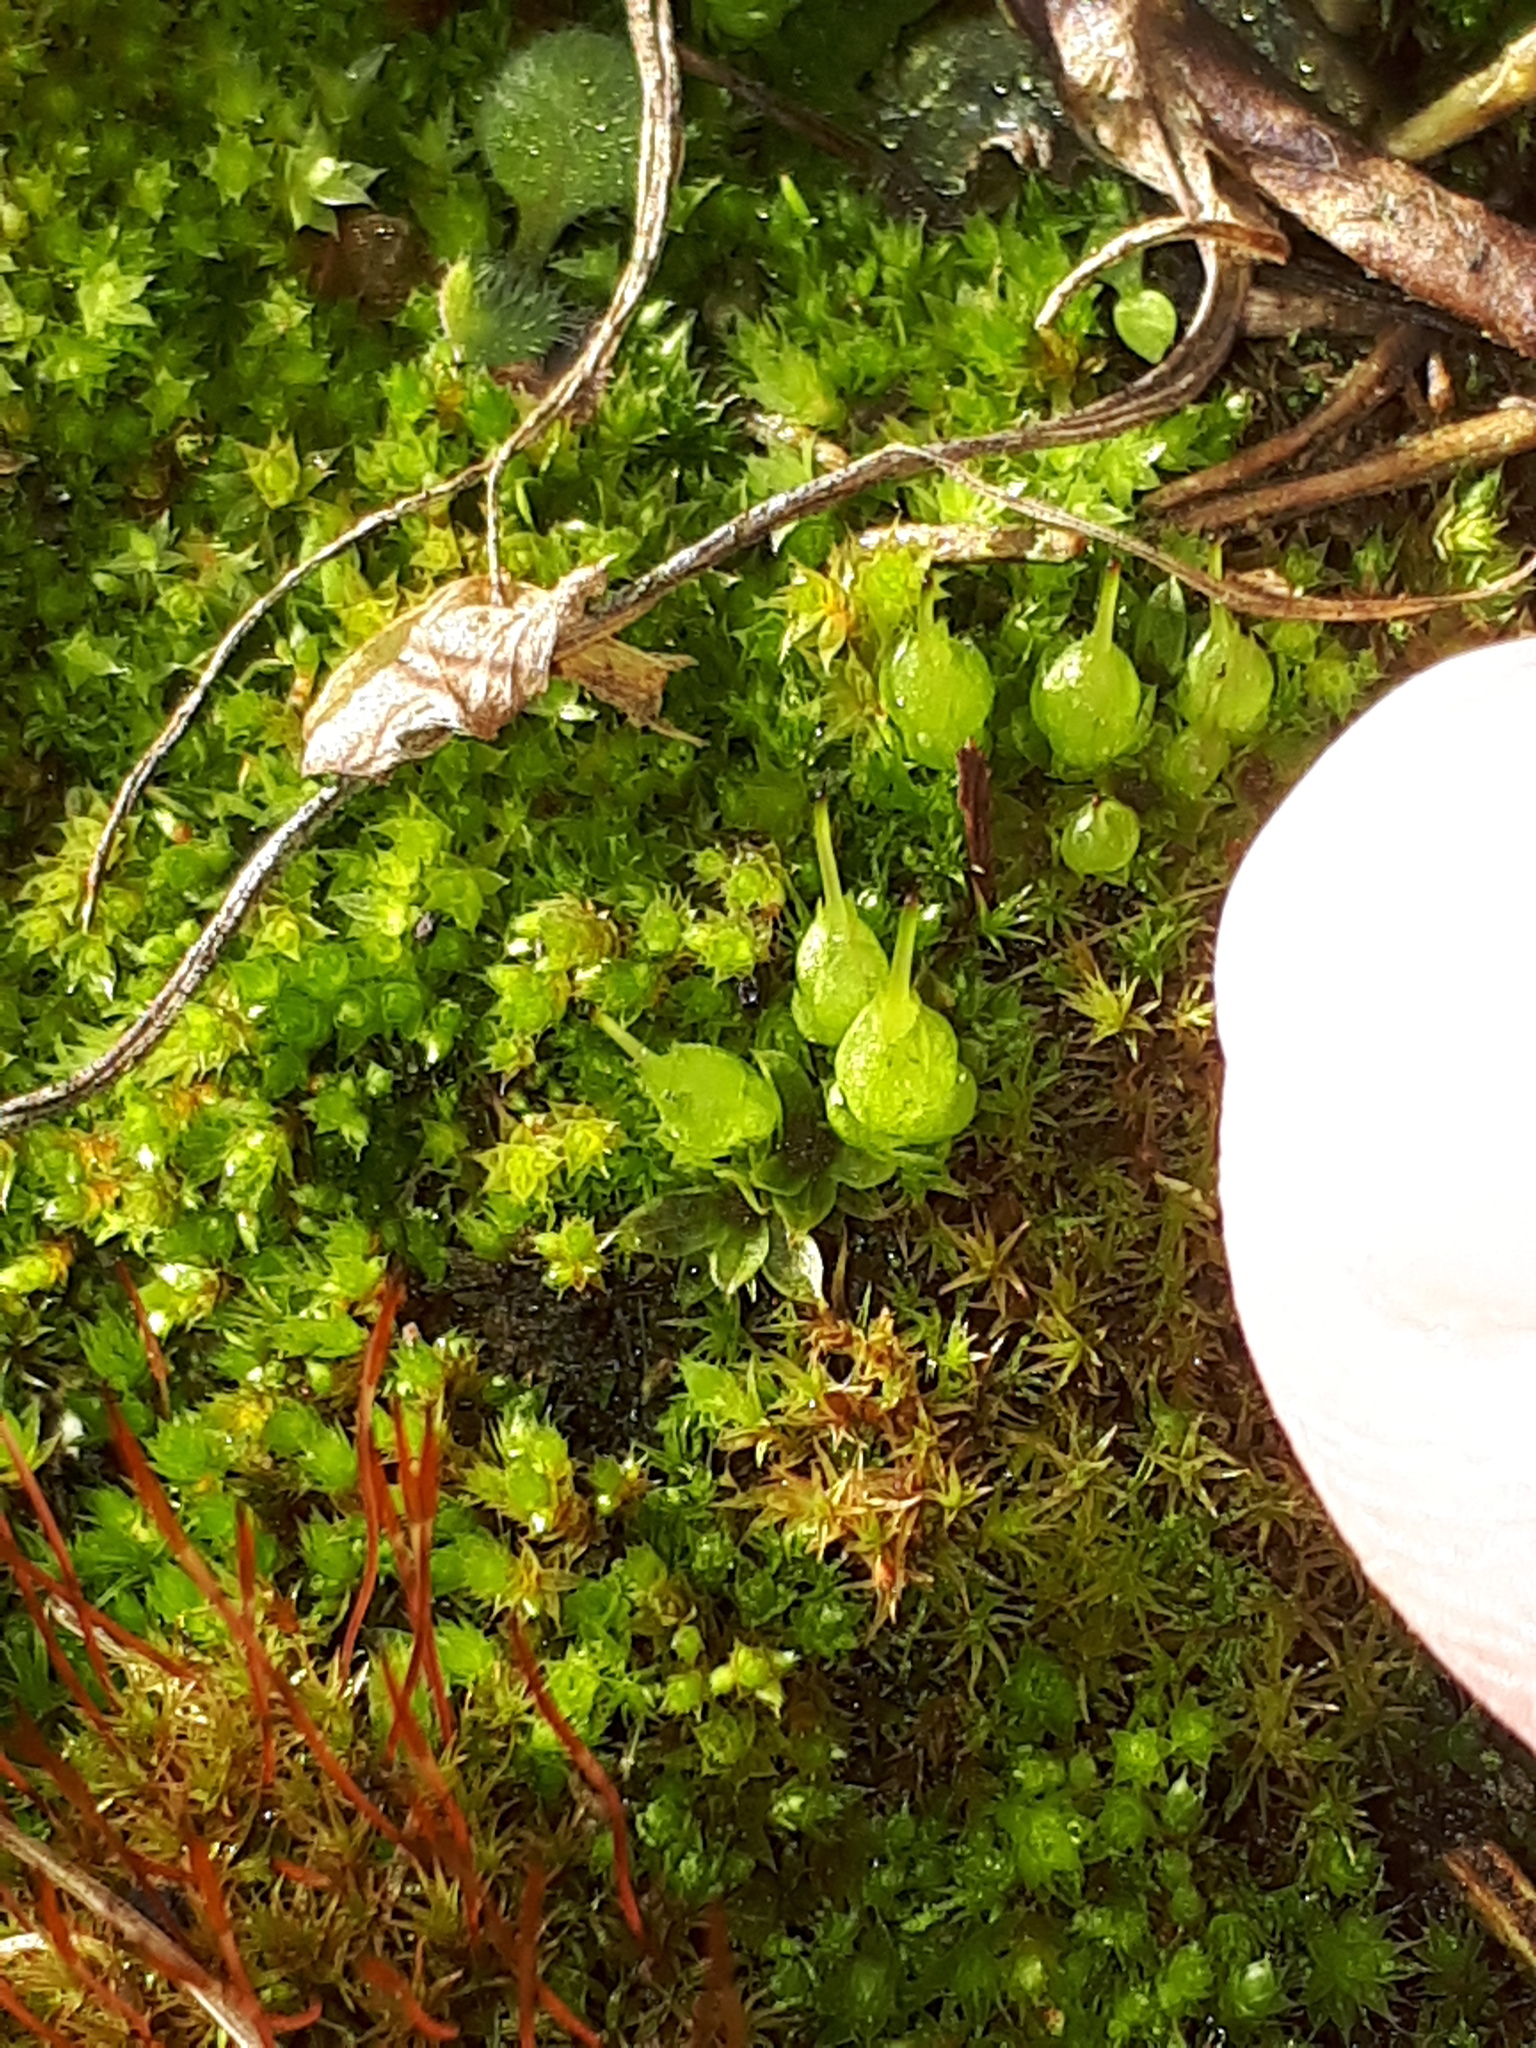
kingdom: Plantae
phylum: Bryophyta
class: Bryopsida
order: Funariales
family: Funariaceae
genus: Funaria
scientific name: Funaria hygrometrica
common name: Common cord moss
